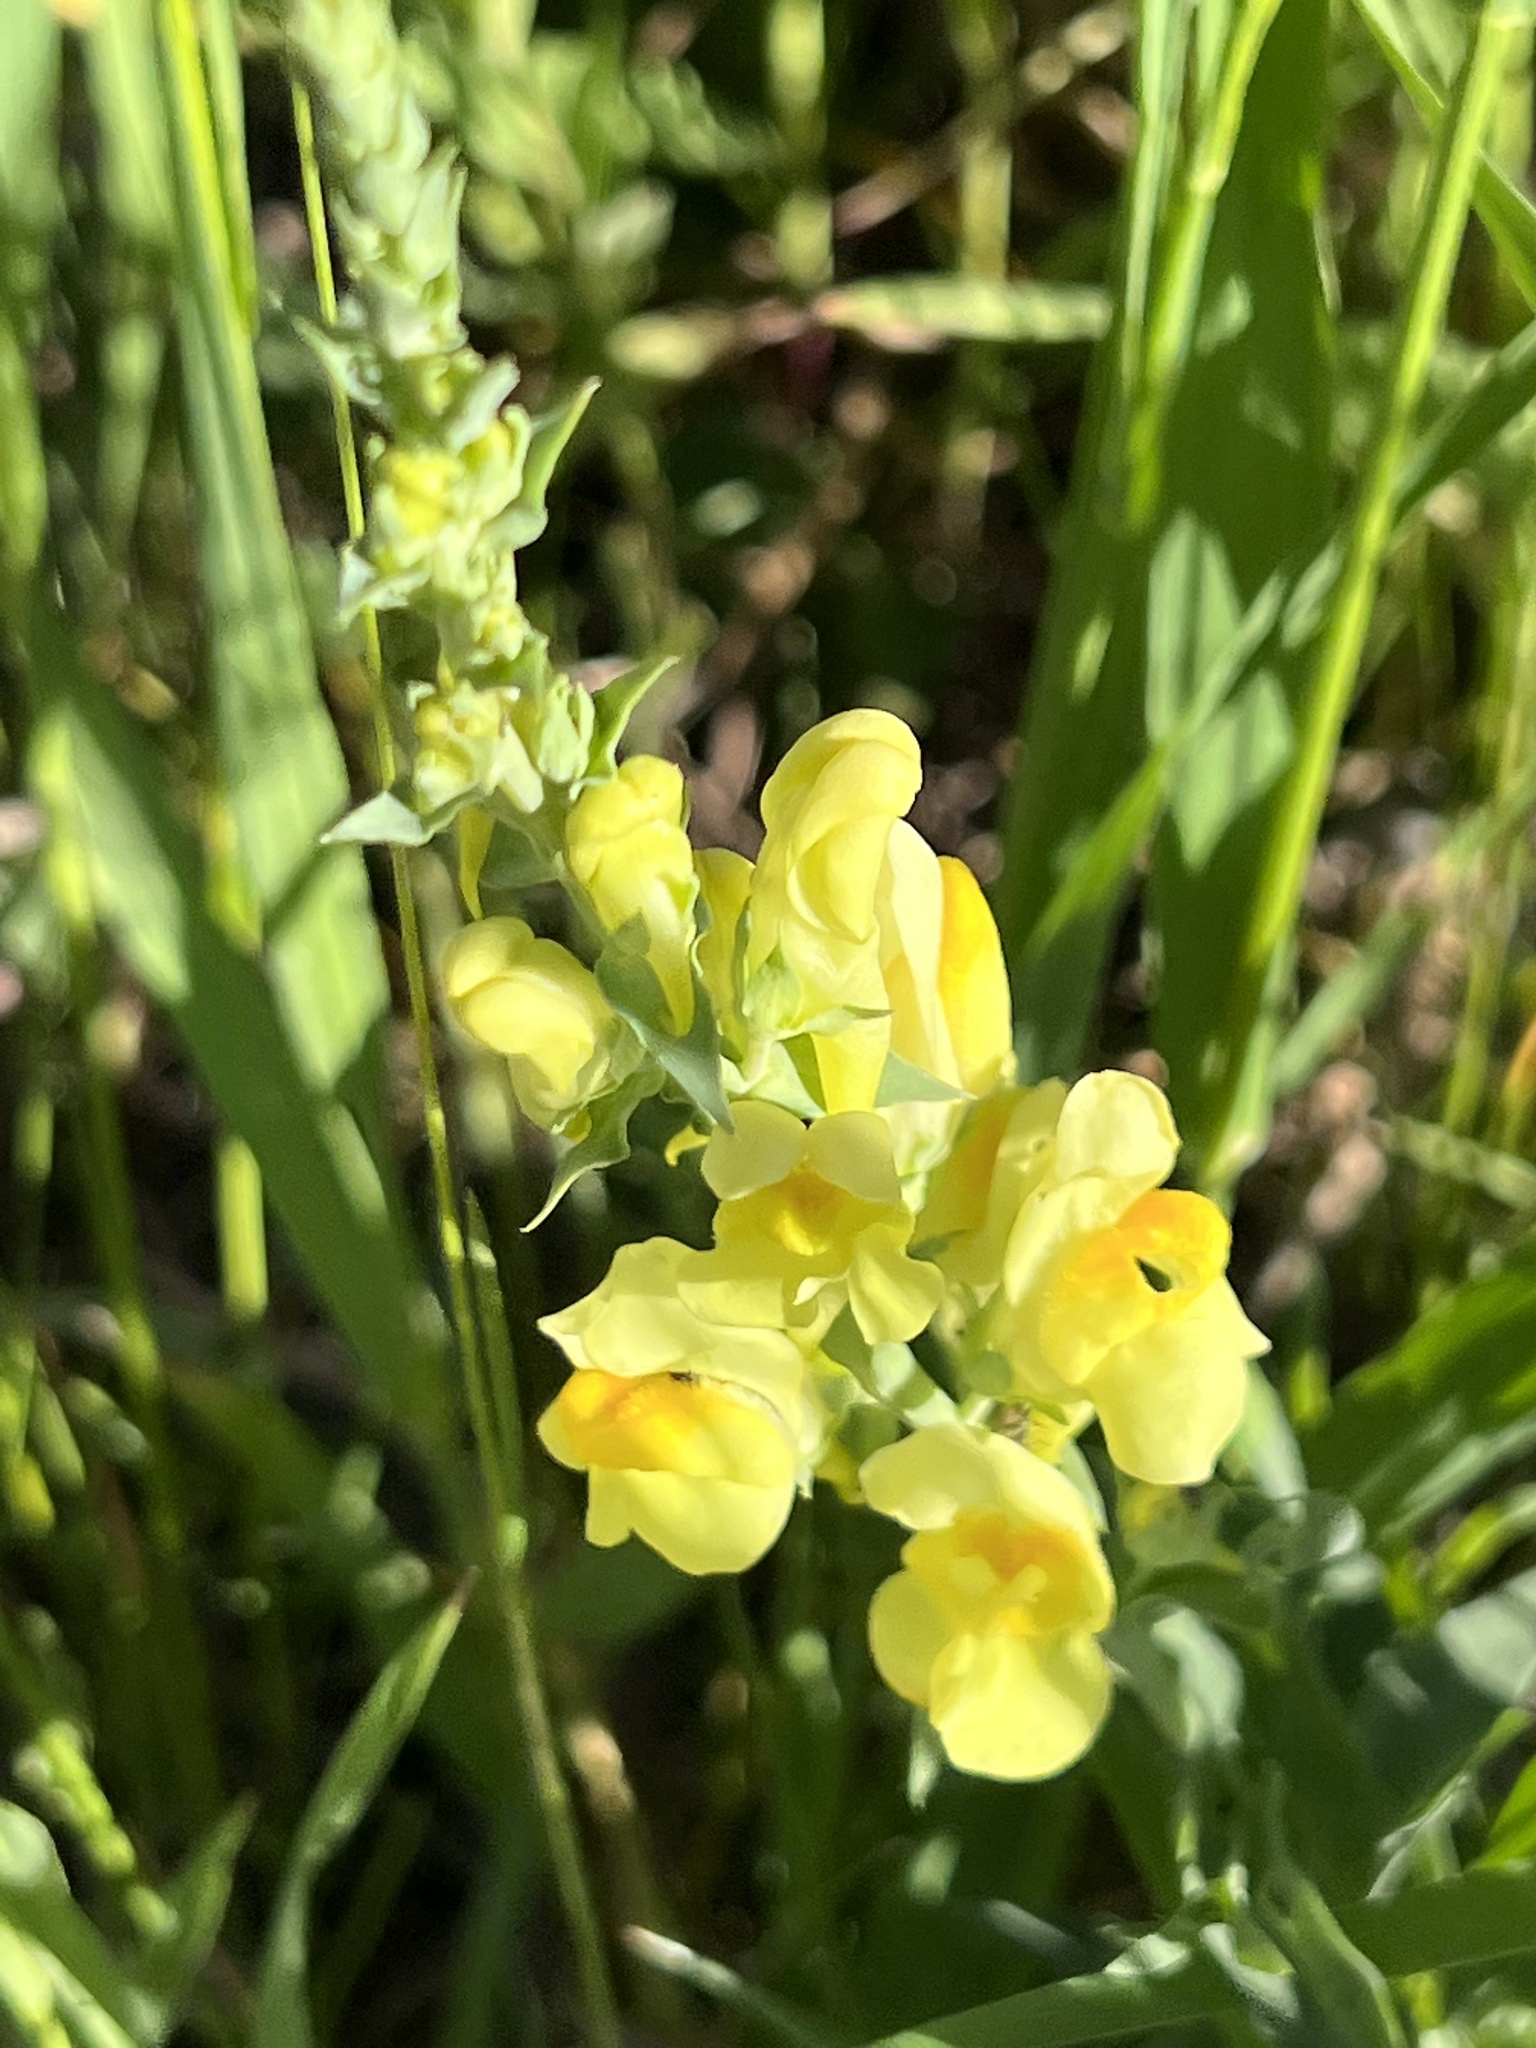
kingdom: Plantae
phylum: Tracheophyta
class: Magnoliopsida
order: Lamiales
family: Plantaginaceae
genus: Linaria
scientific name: Linaria vulgaris
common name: Butter and eggs
